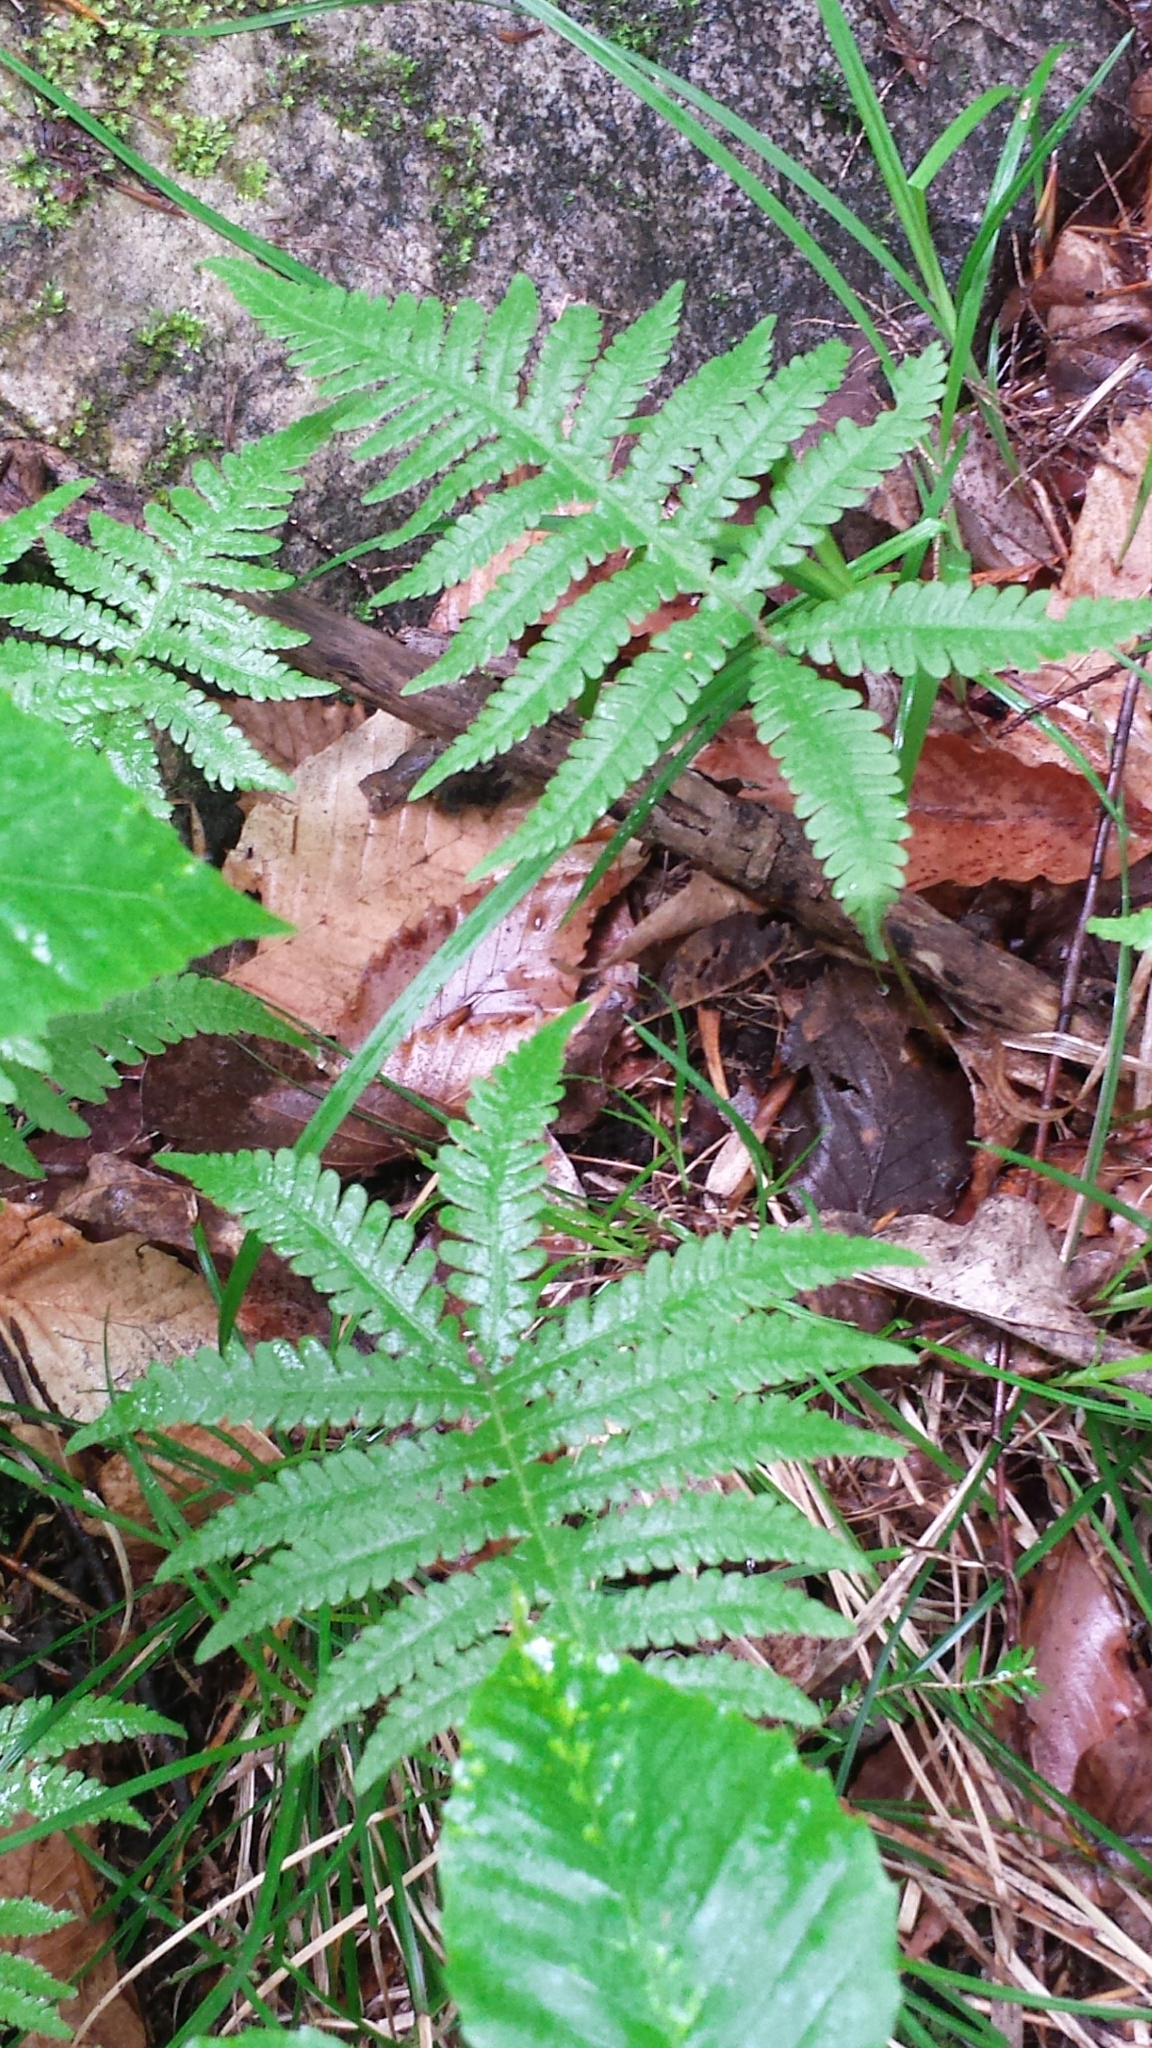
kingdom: Plantae
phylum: Tracheophyta
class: Polypodiopsida
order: Polypodiales
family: Thelypteridaceae
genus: Phegopteris
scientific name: Phegopteris connectilis
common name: Beech fern
